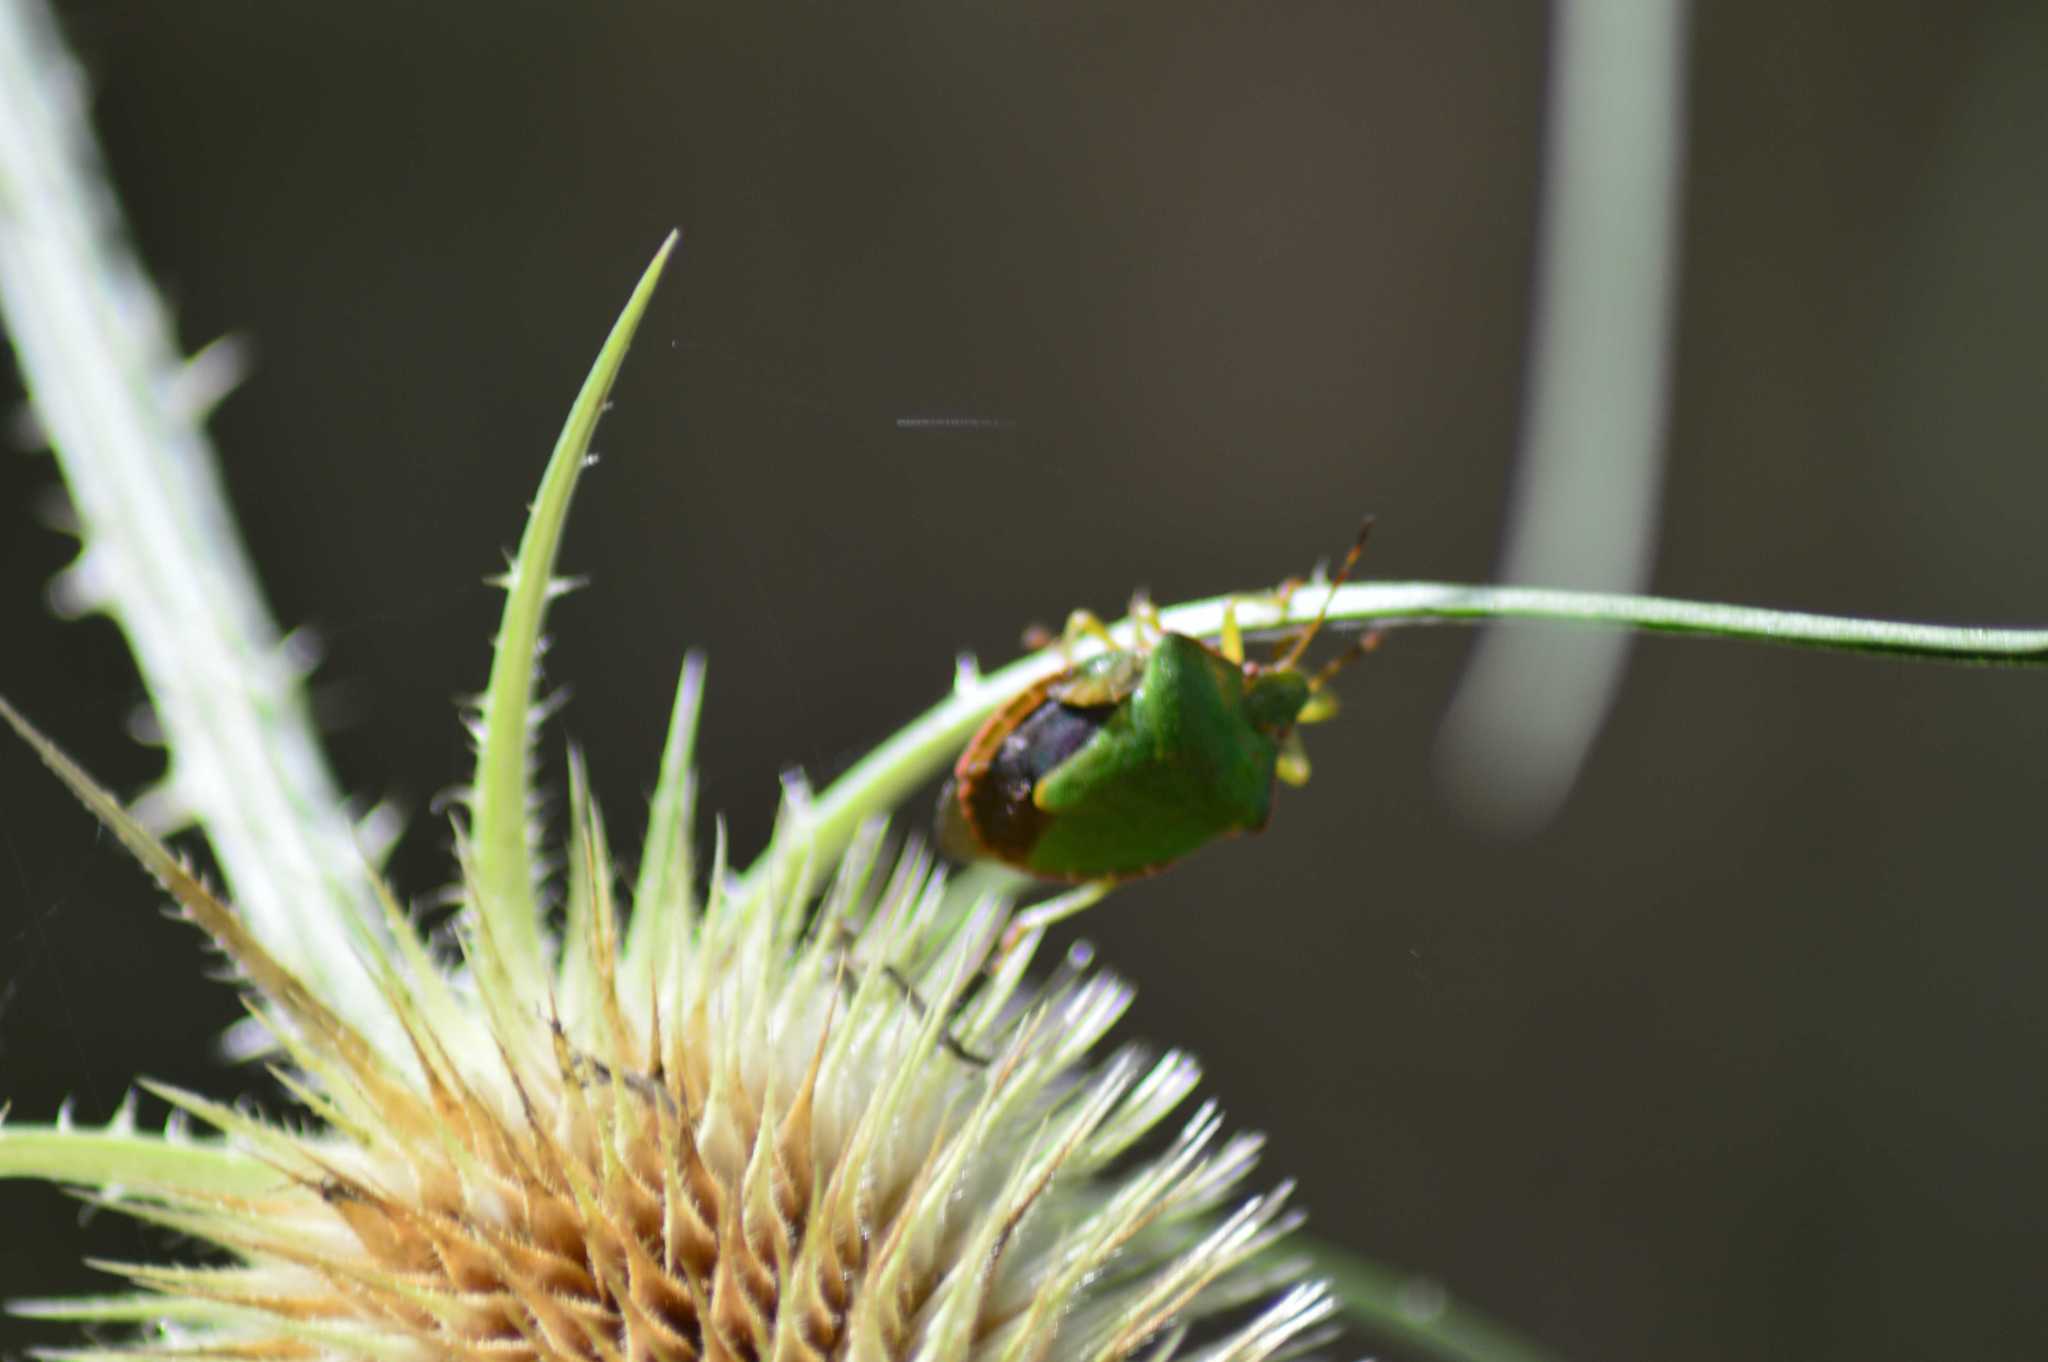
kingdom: Animalia
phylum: Arthropoda
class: Insecta
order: Hemiptera
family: Pentatomidae
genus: Palomena
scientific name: Palomena prasina
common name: Green shieldbug
